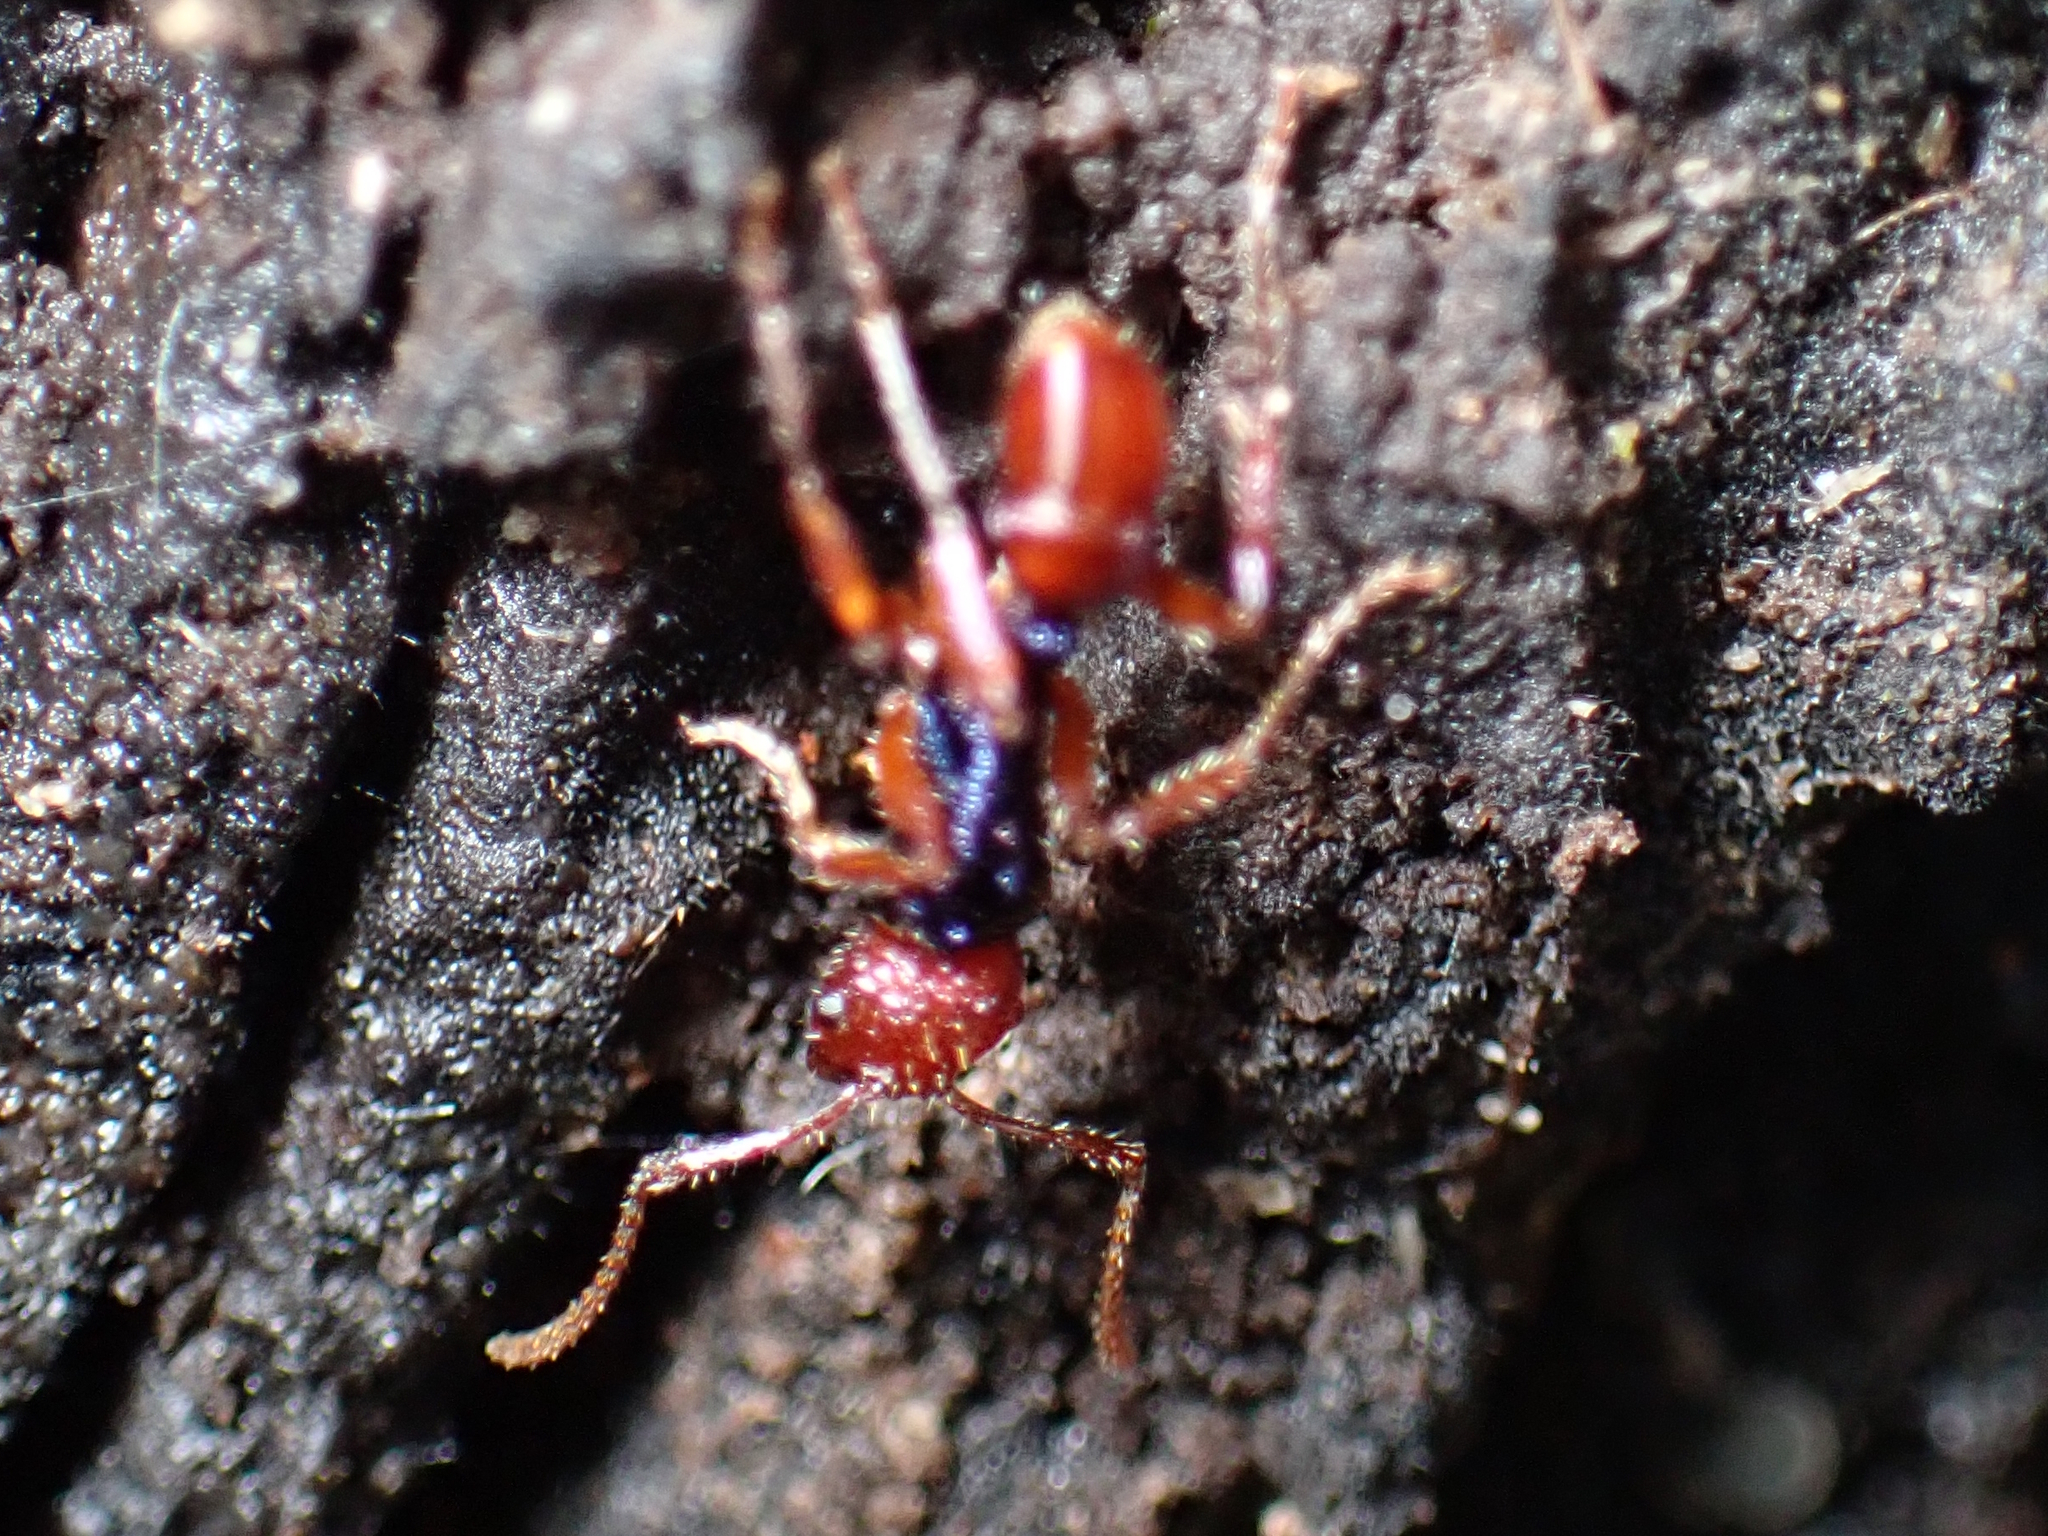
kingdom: Animalia
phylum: Arthropoda
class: Insecta
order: Hymenoptera
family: Formicidae
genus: Rhytidoponera
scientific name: Rhytidoponera croesus
